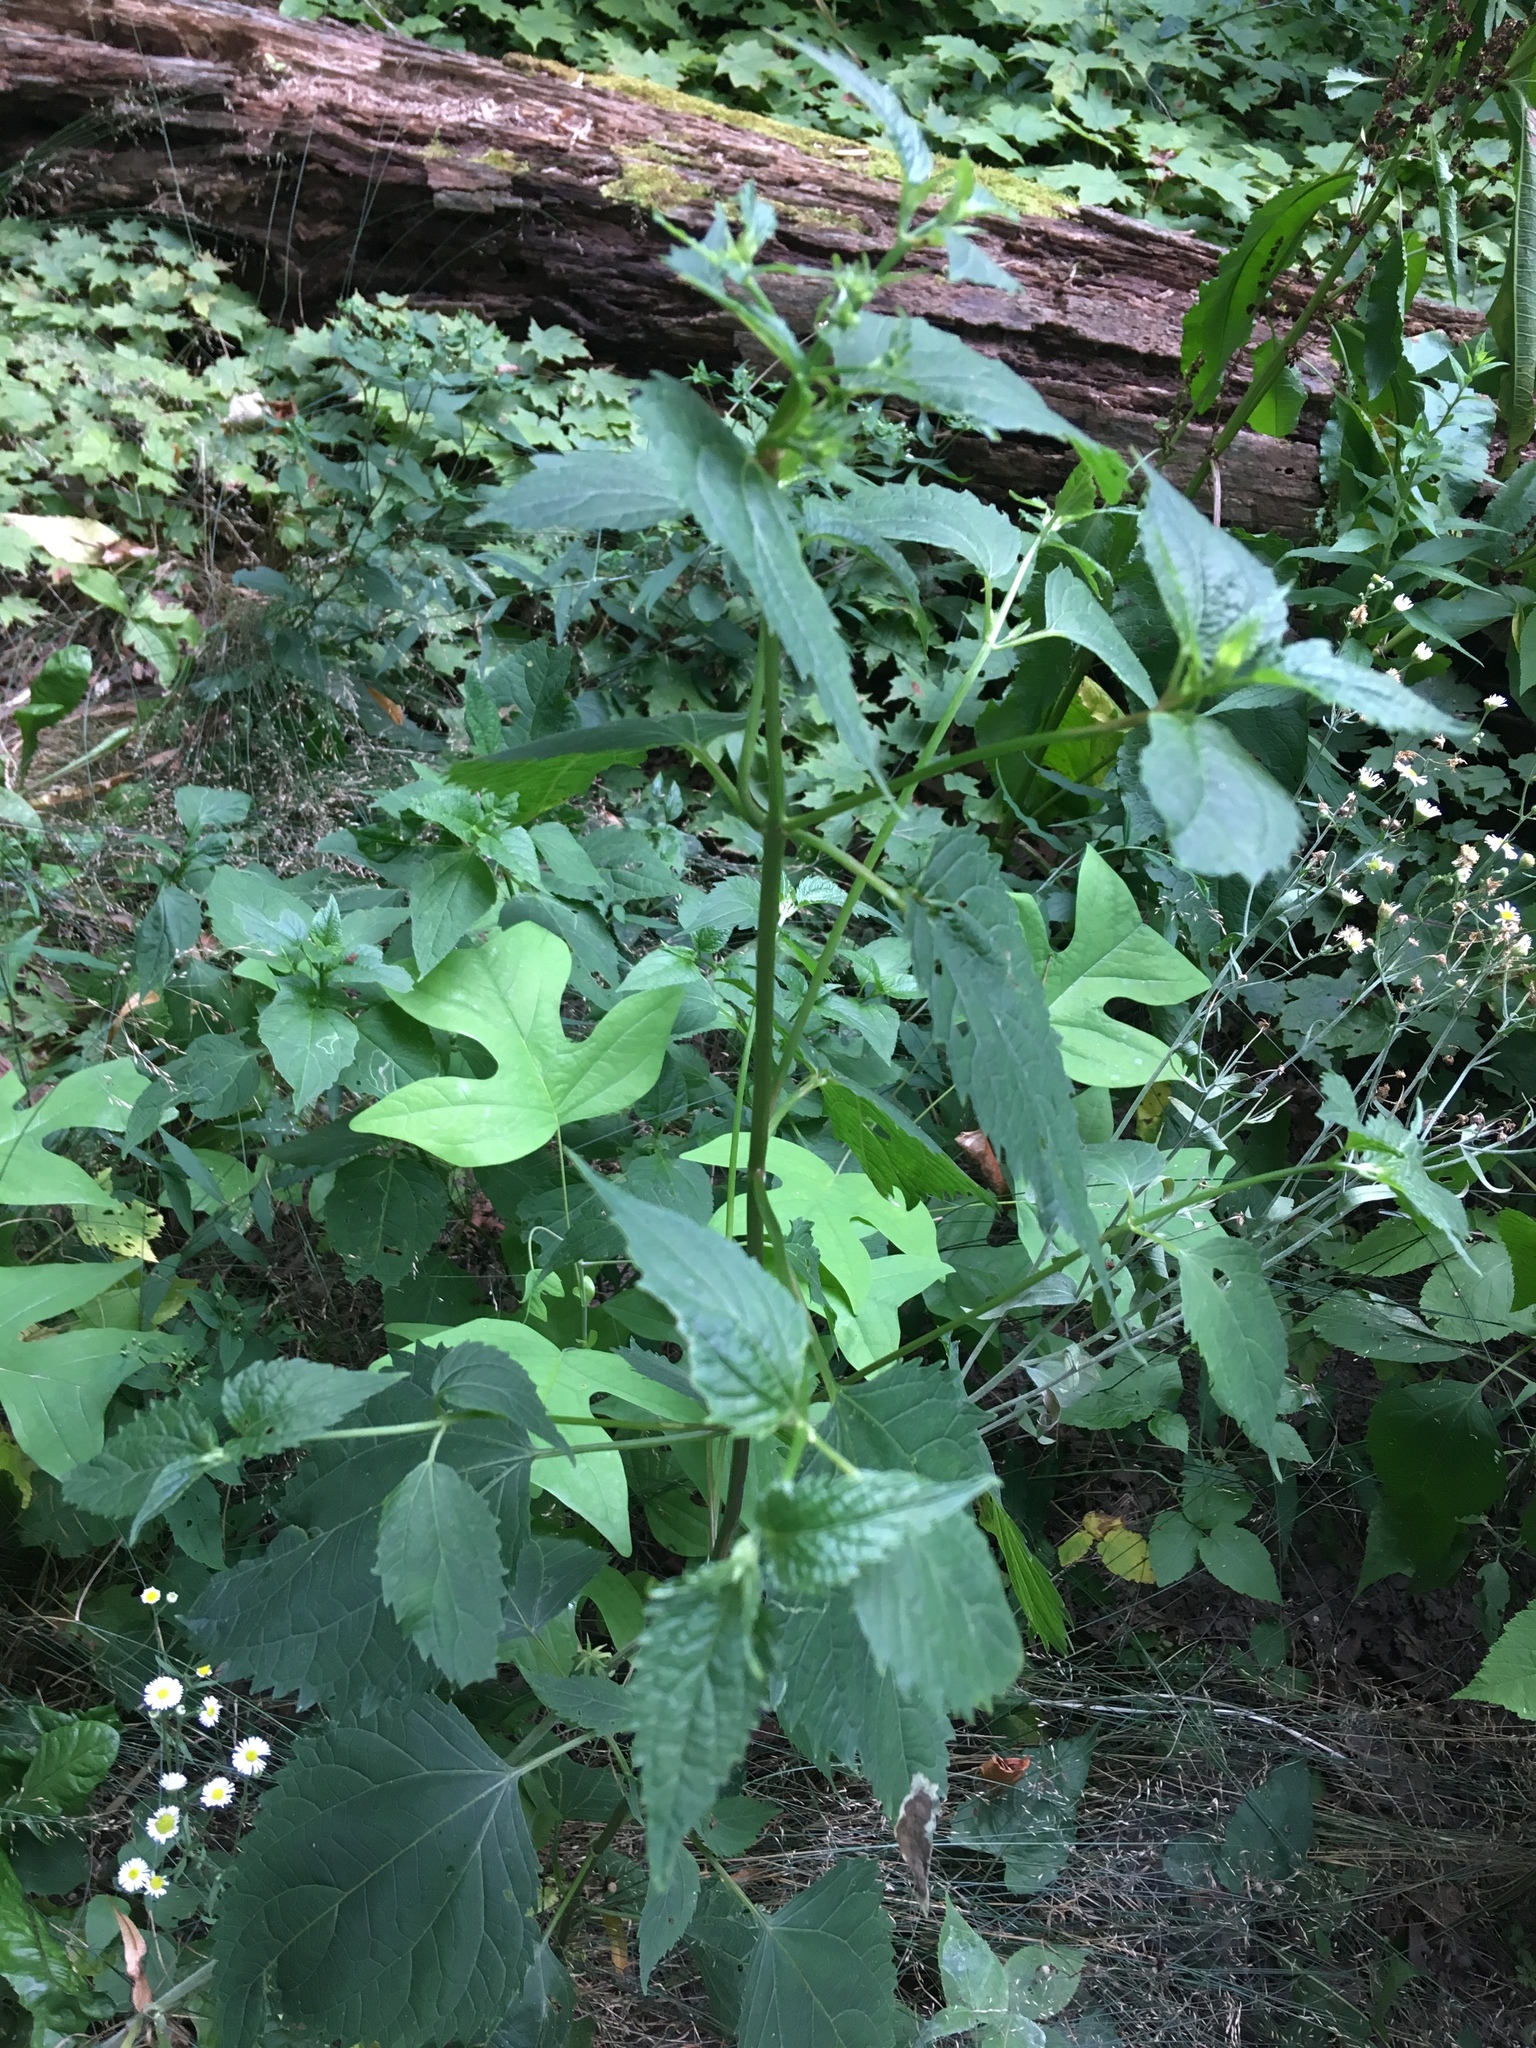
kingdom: Plantae
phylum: Tracheophyta
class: Magnoliopsida
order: Asterales
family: Asteraceae
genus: Ageratina
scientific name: Ageratina altissima
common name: White snakeroot
